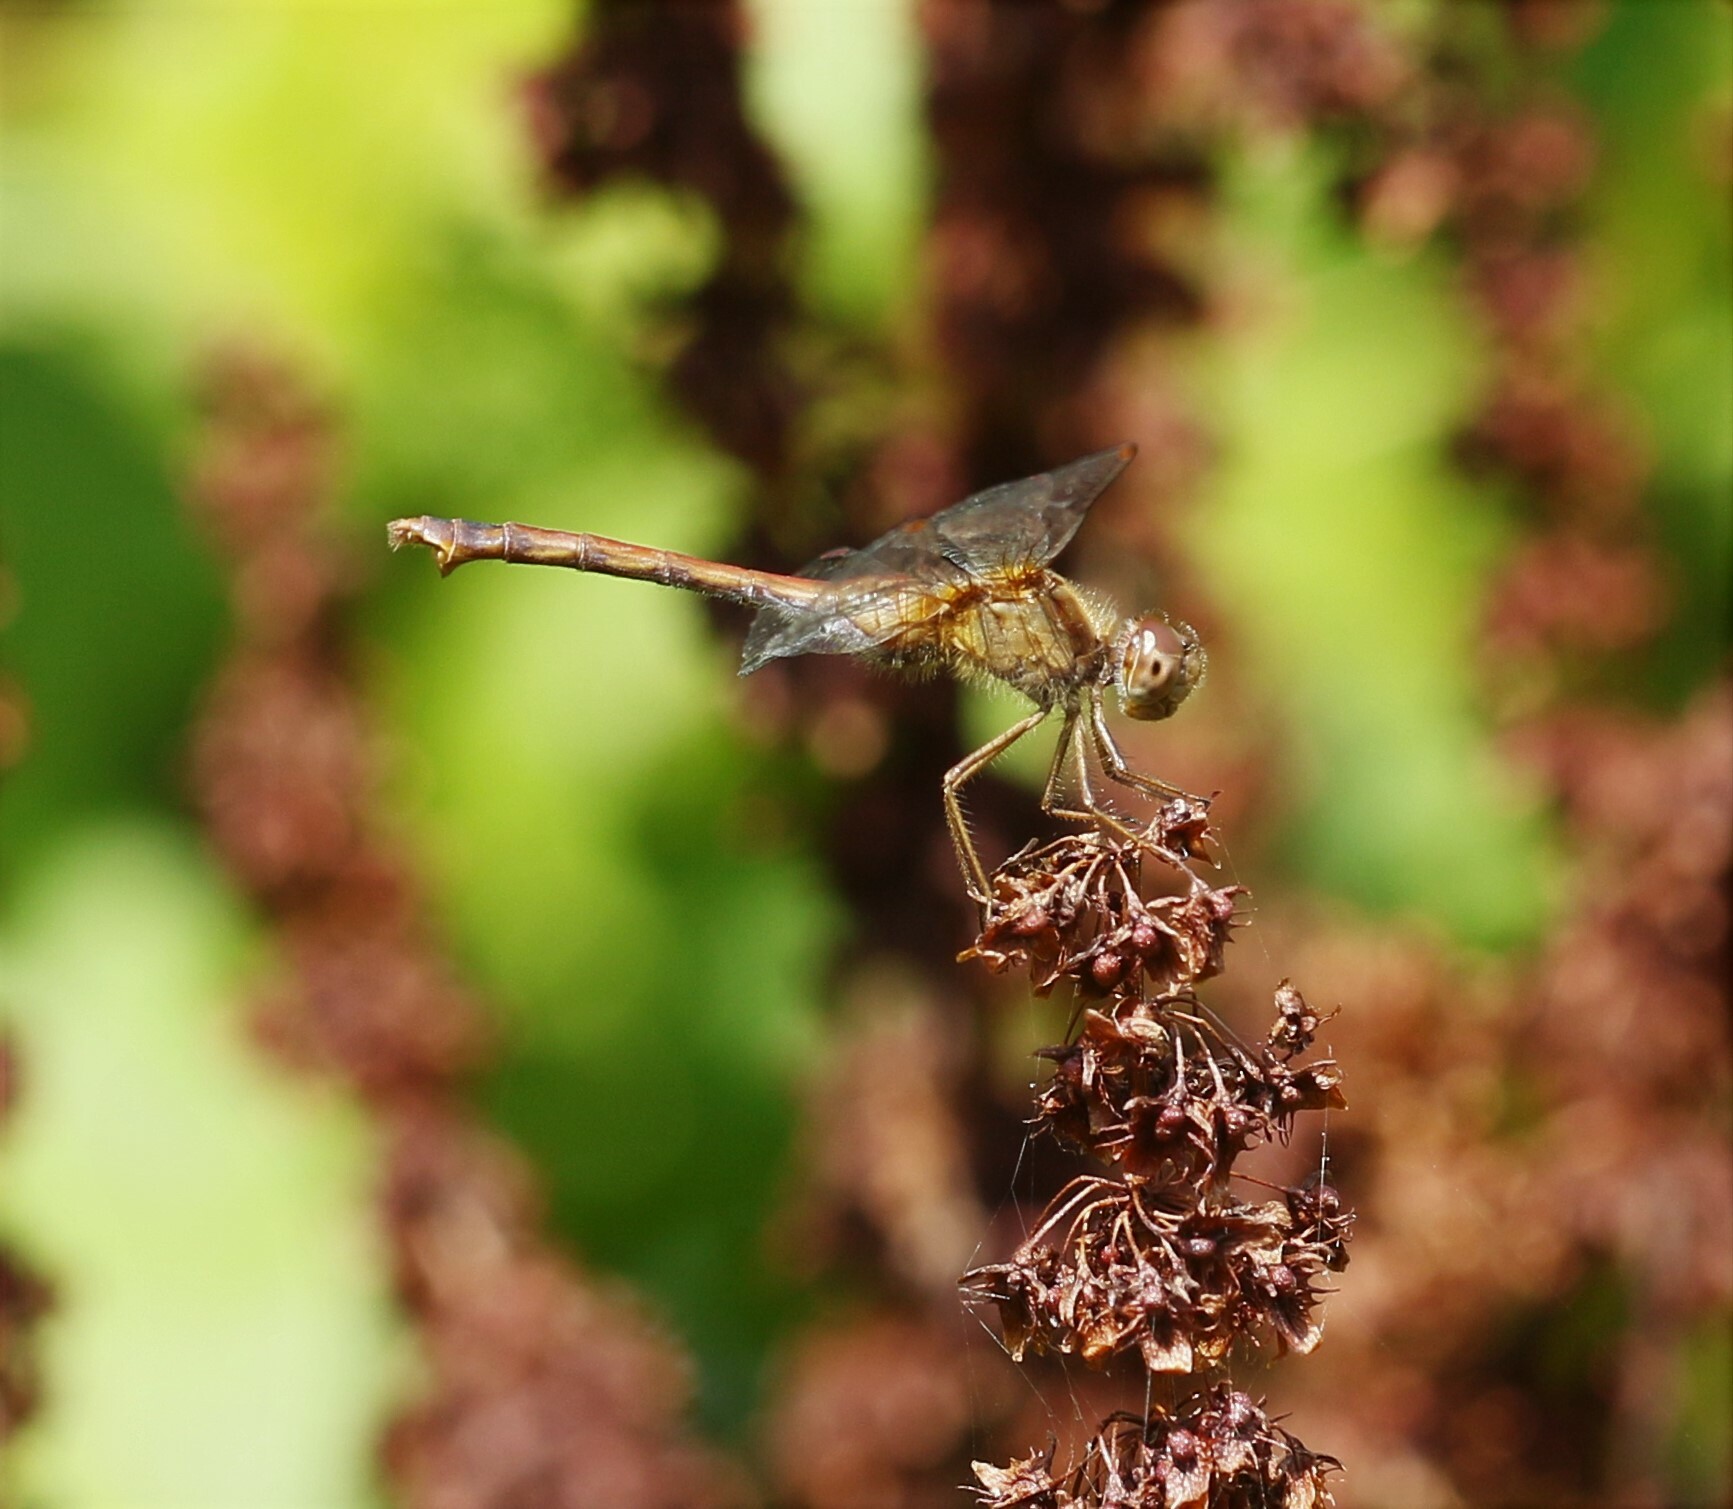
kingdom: Animalia
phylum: Arthropoda
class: Insecta
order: Odonata
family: Libellulidae
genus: Sympetrum
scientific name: Sympetrum vicinum
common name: Autumn meadowhawk
